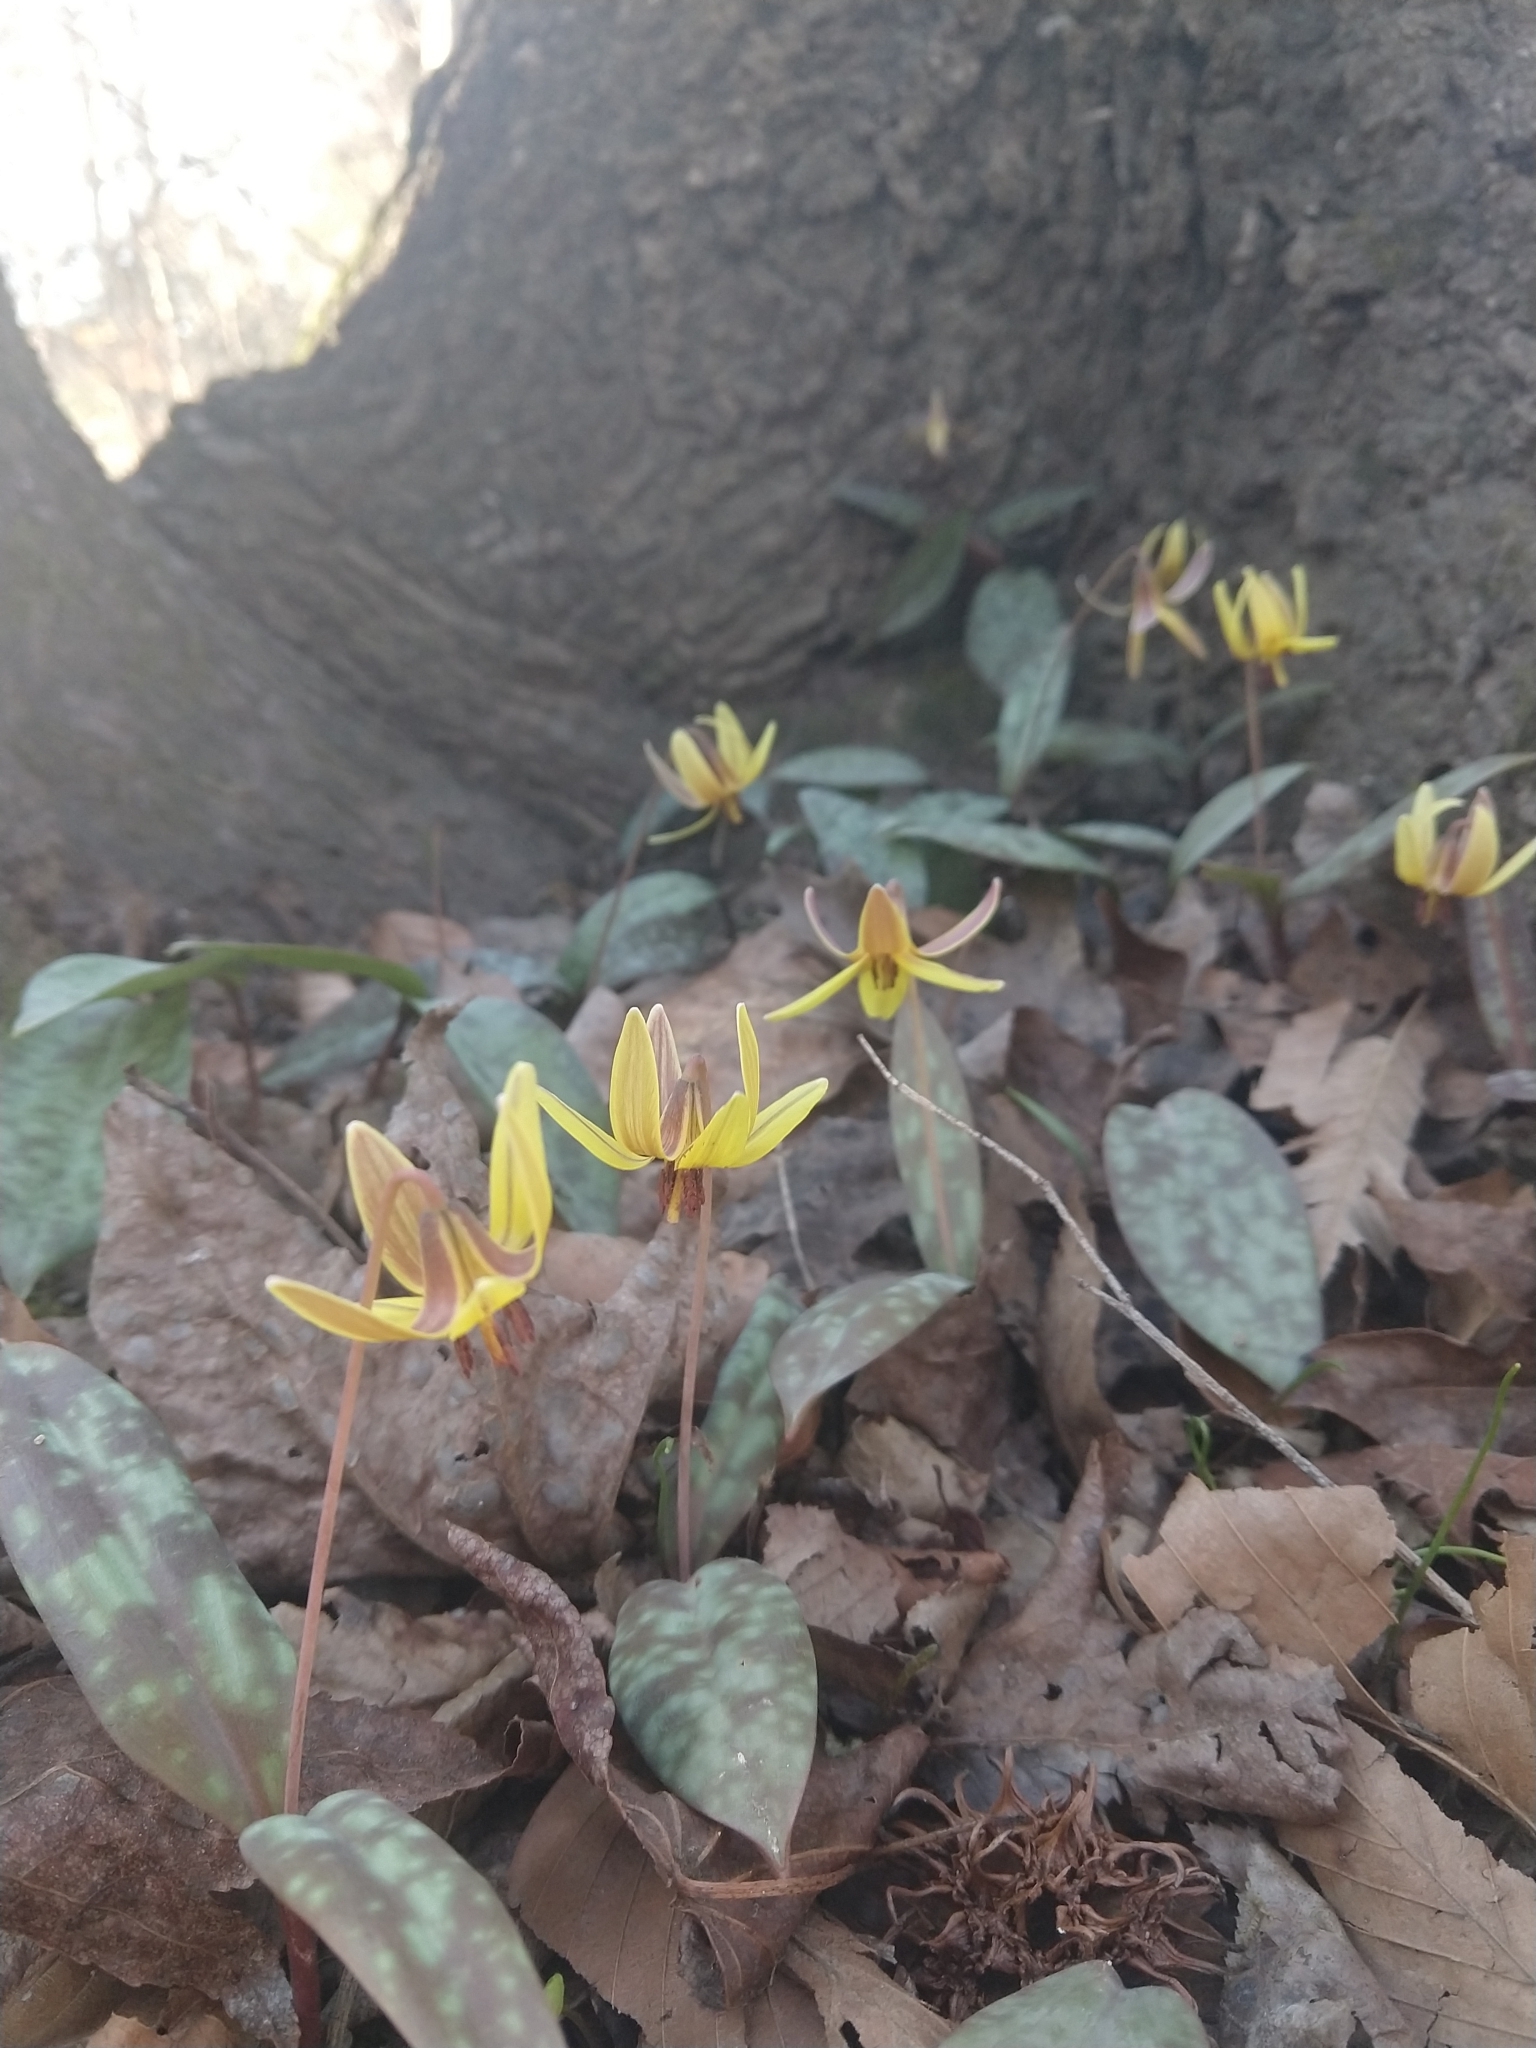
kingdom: Plantae
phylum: Tracheophyta
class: Liliopsida
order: Liliales
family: Liliaceae
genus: Erythronium
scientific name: Erythronium umbilicatum
